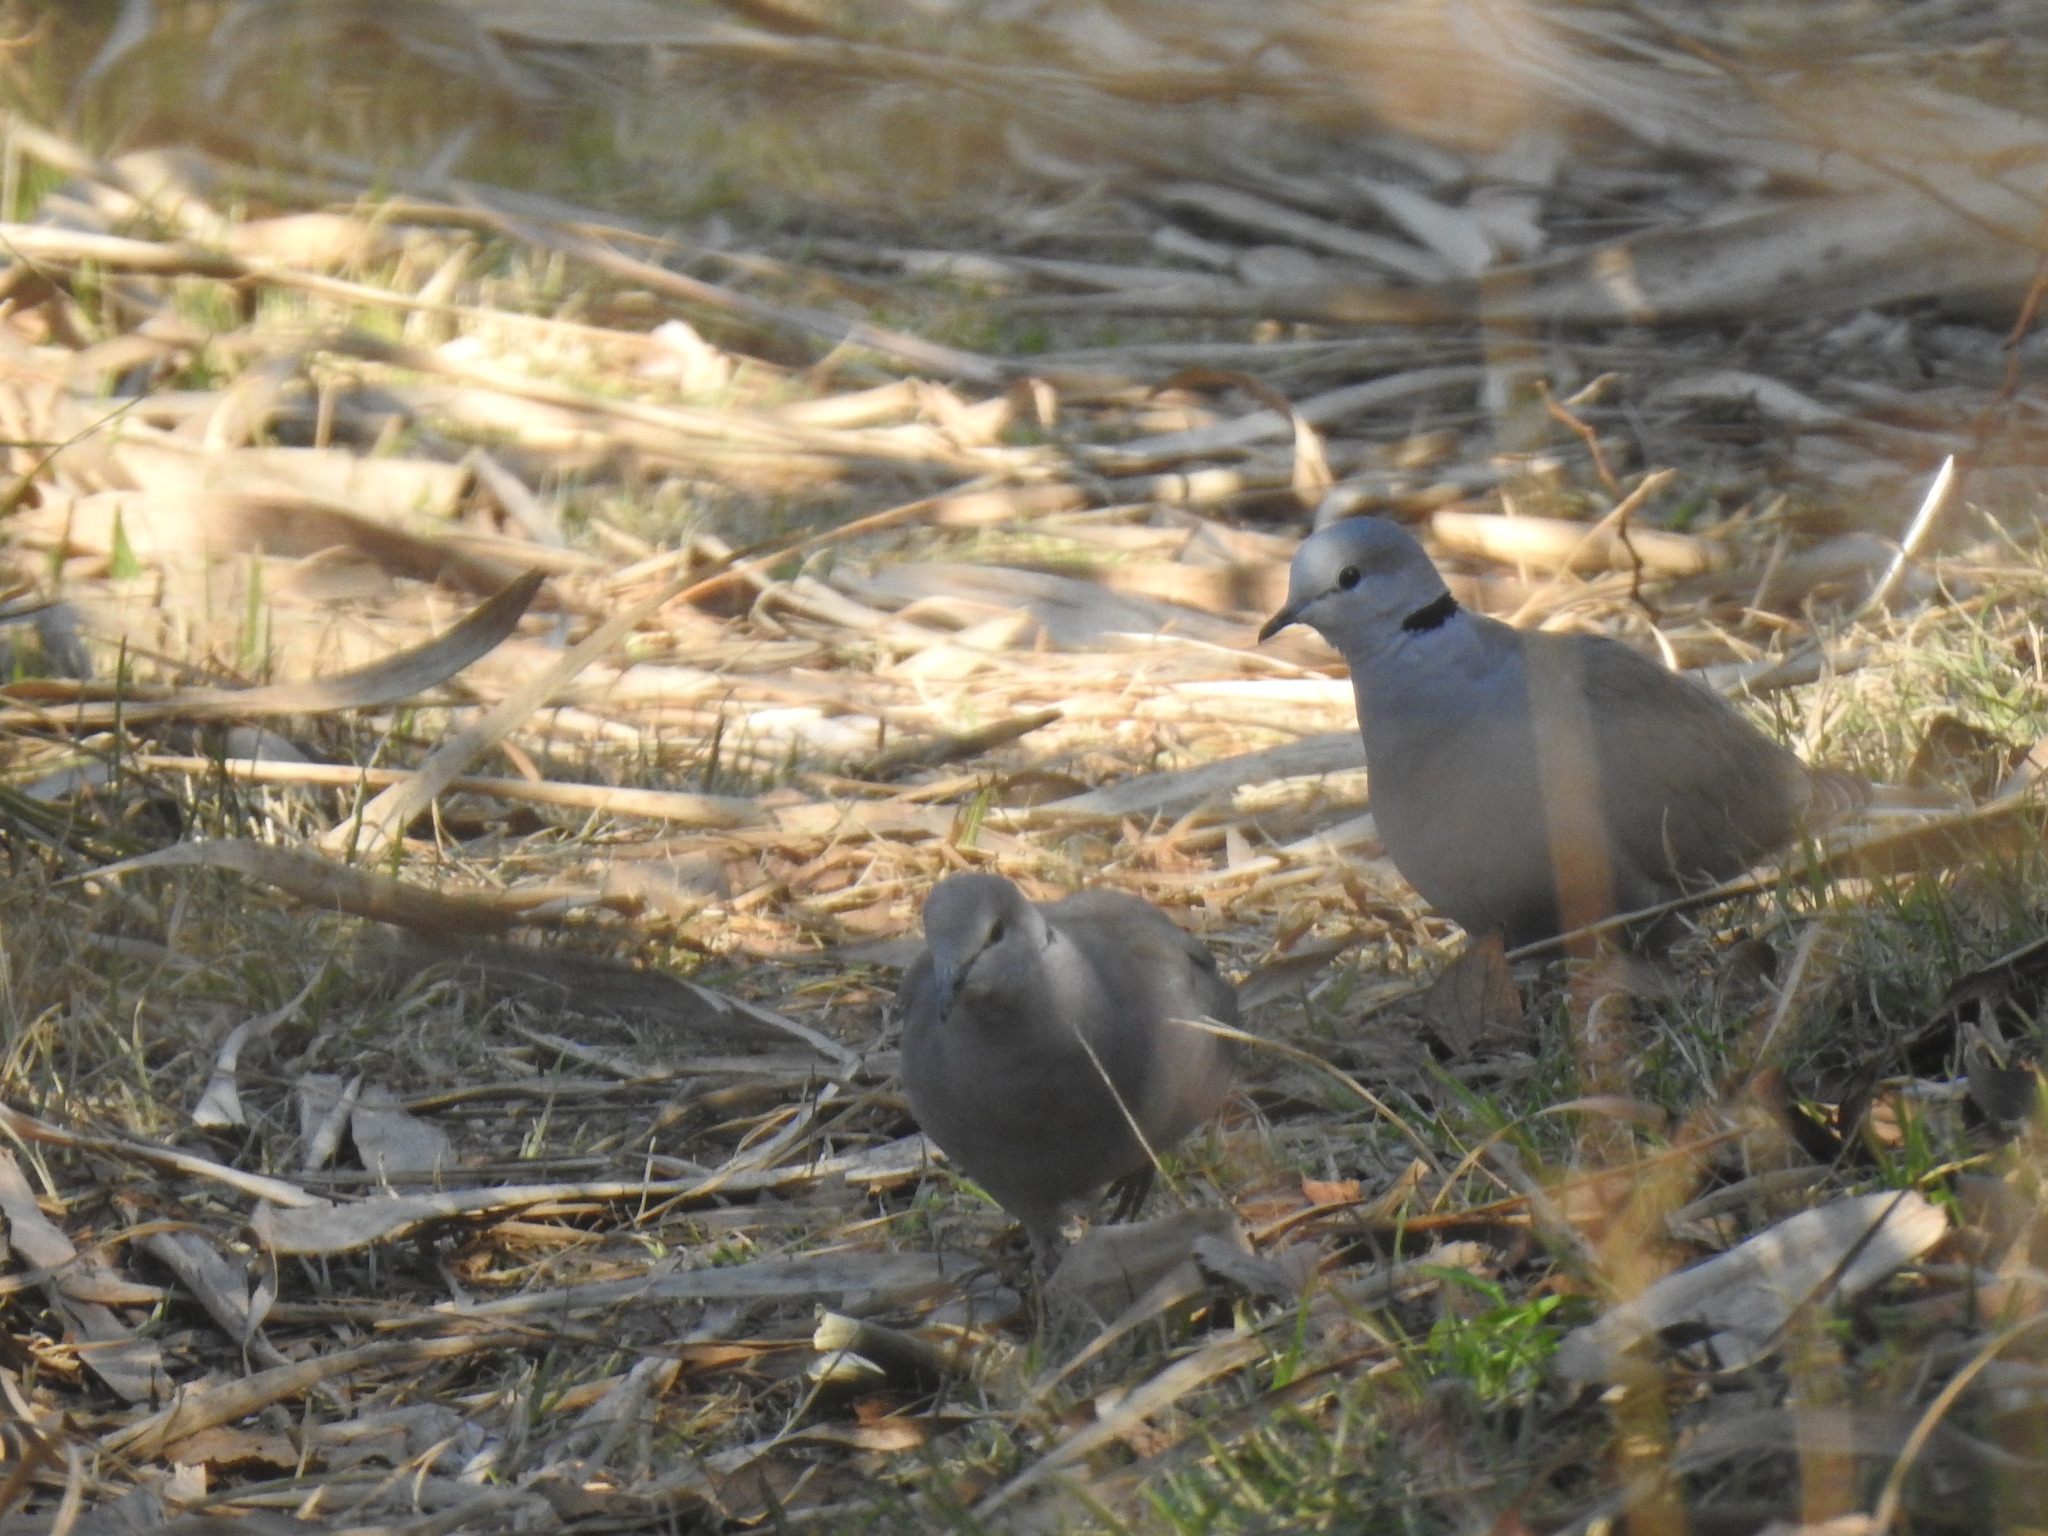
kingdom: Animalia
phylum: Chordata
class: Aves
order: Columbiformes
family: Columbidae
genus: Streptopelia
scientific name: Streptopelia capicola
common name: Ring-necked dove
